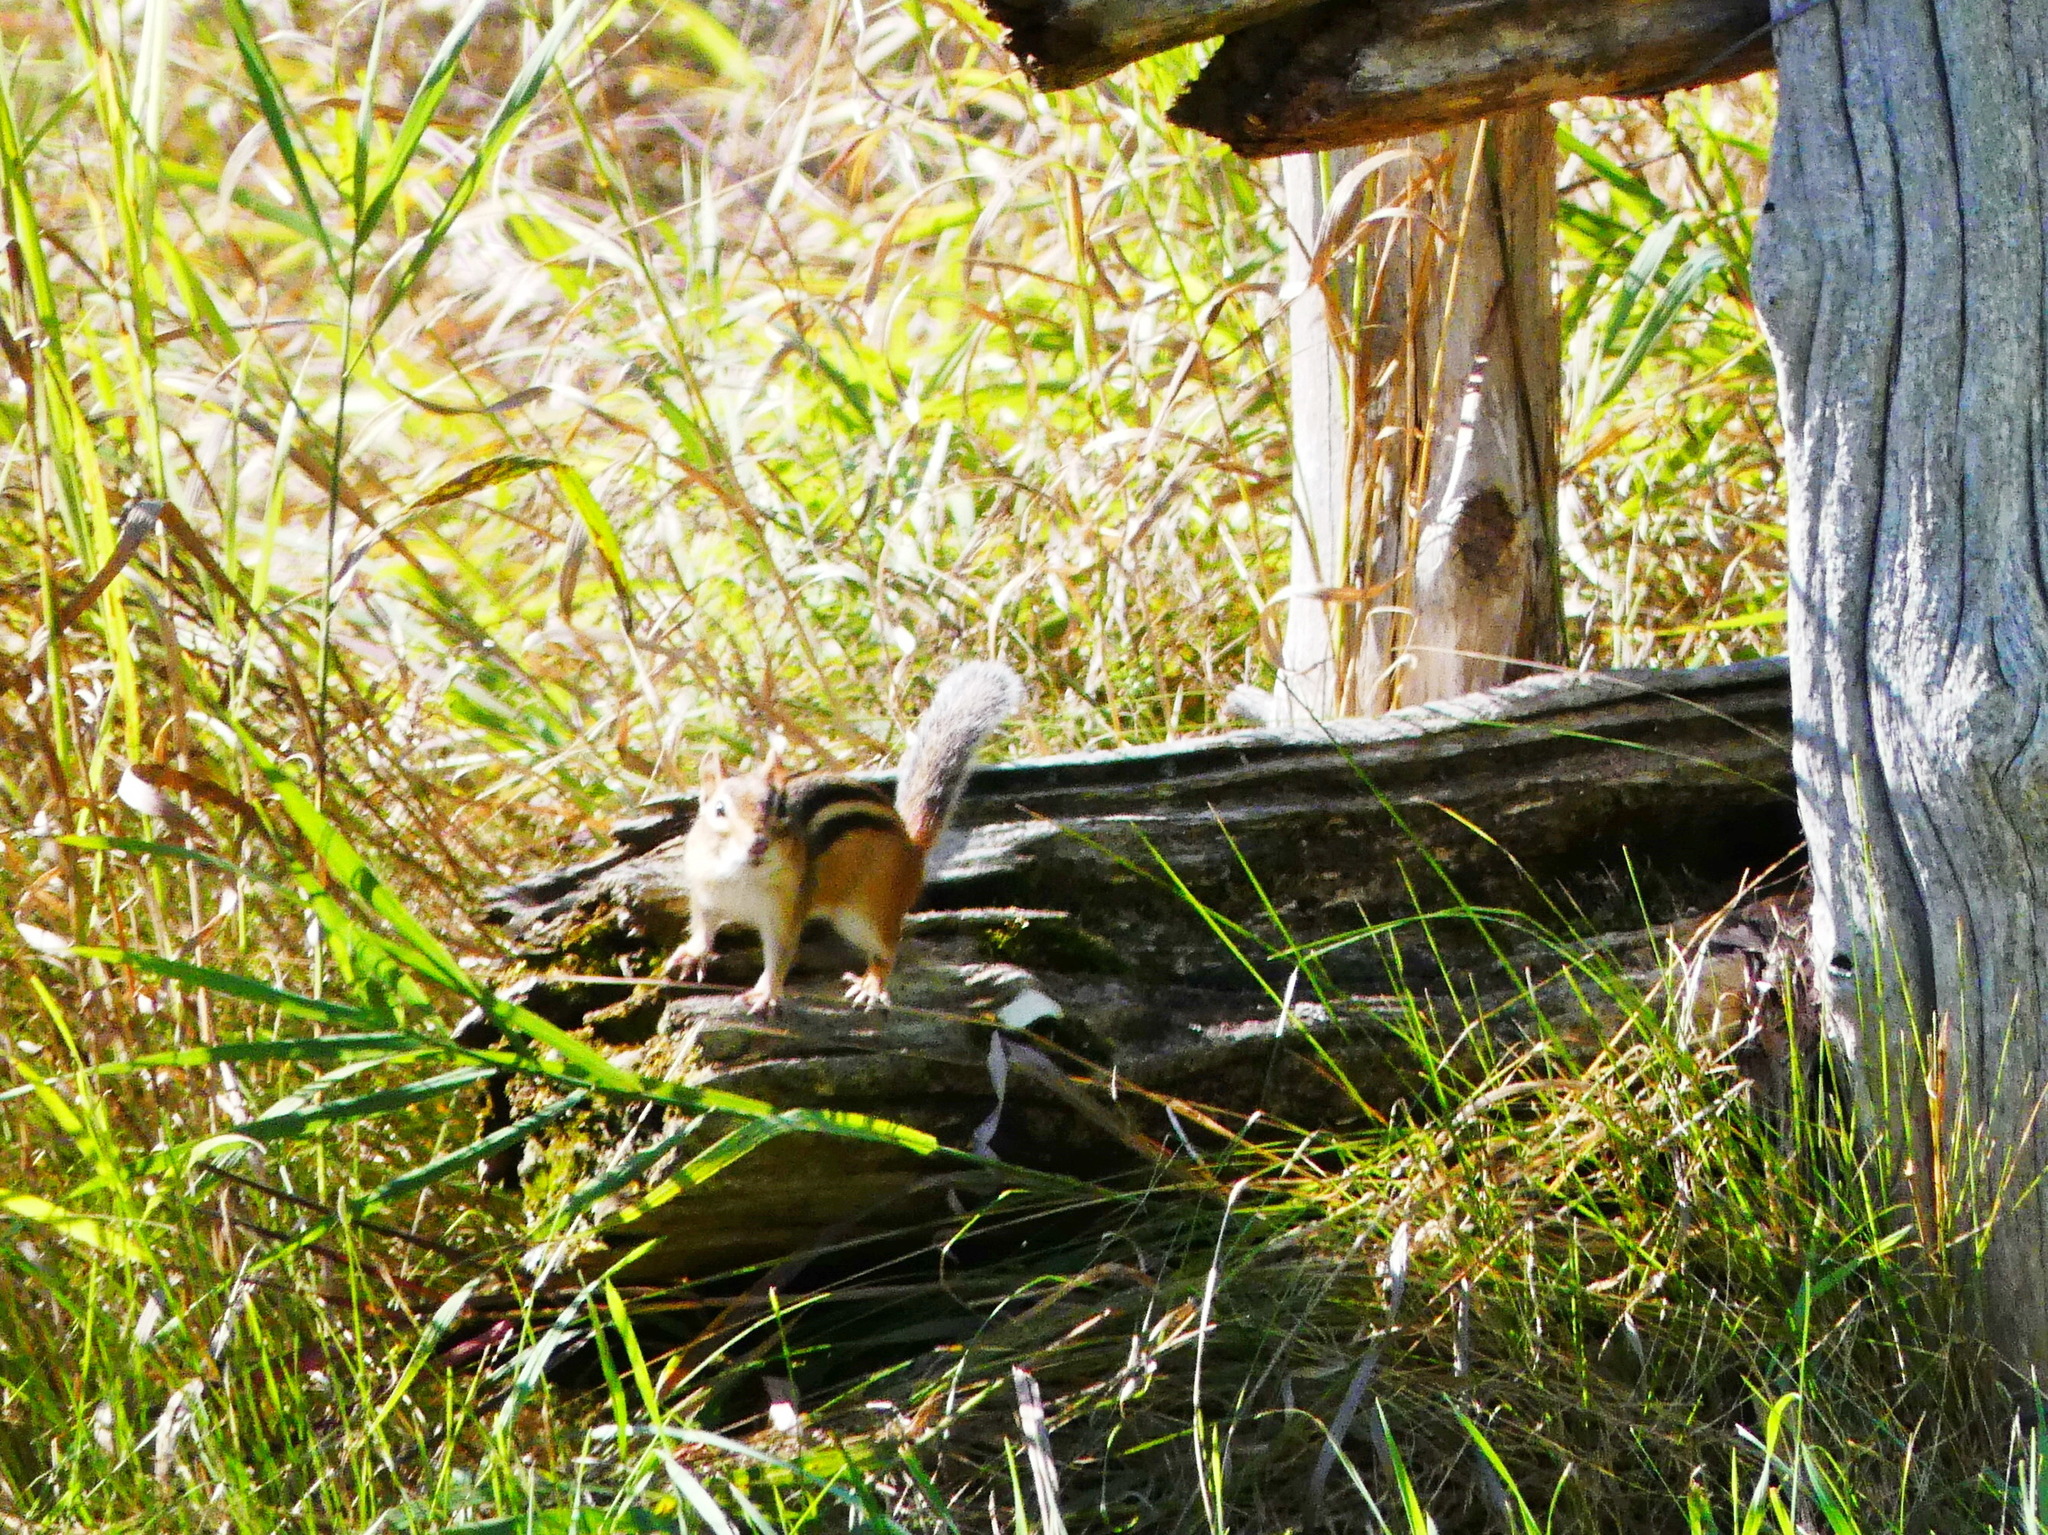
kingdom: Animalia
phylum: Chordata
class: Mammalia
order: Rodentia
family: Sciuridae
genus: Tamias
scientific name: Tamias striatus
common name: Eastern chipmunk
